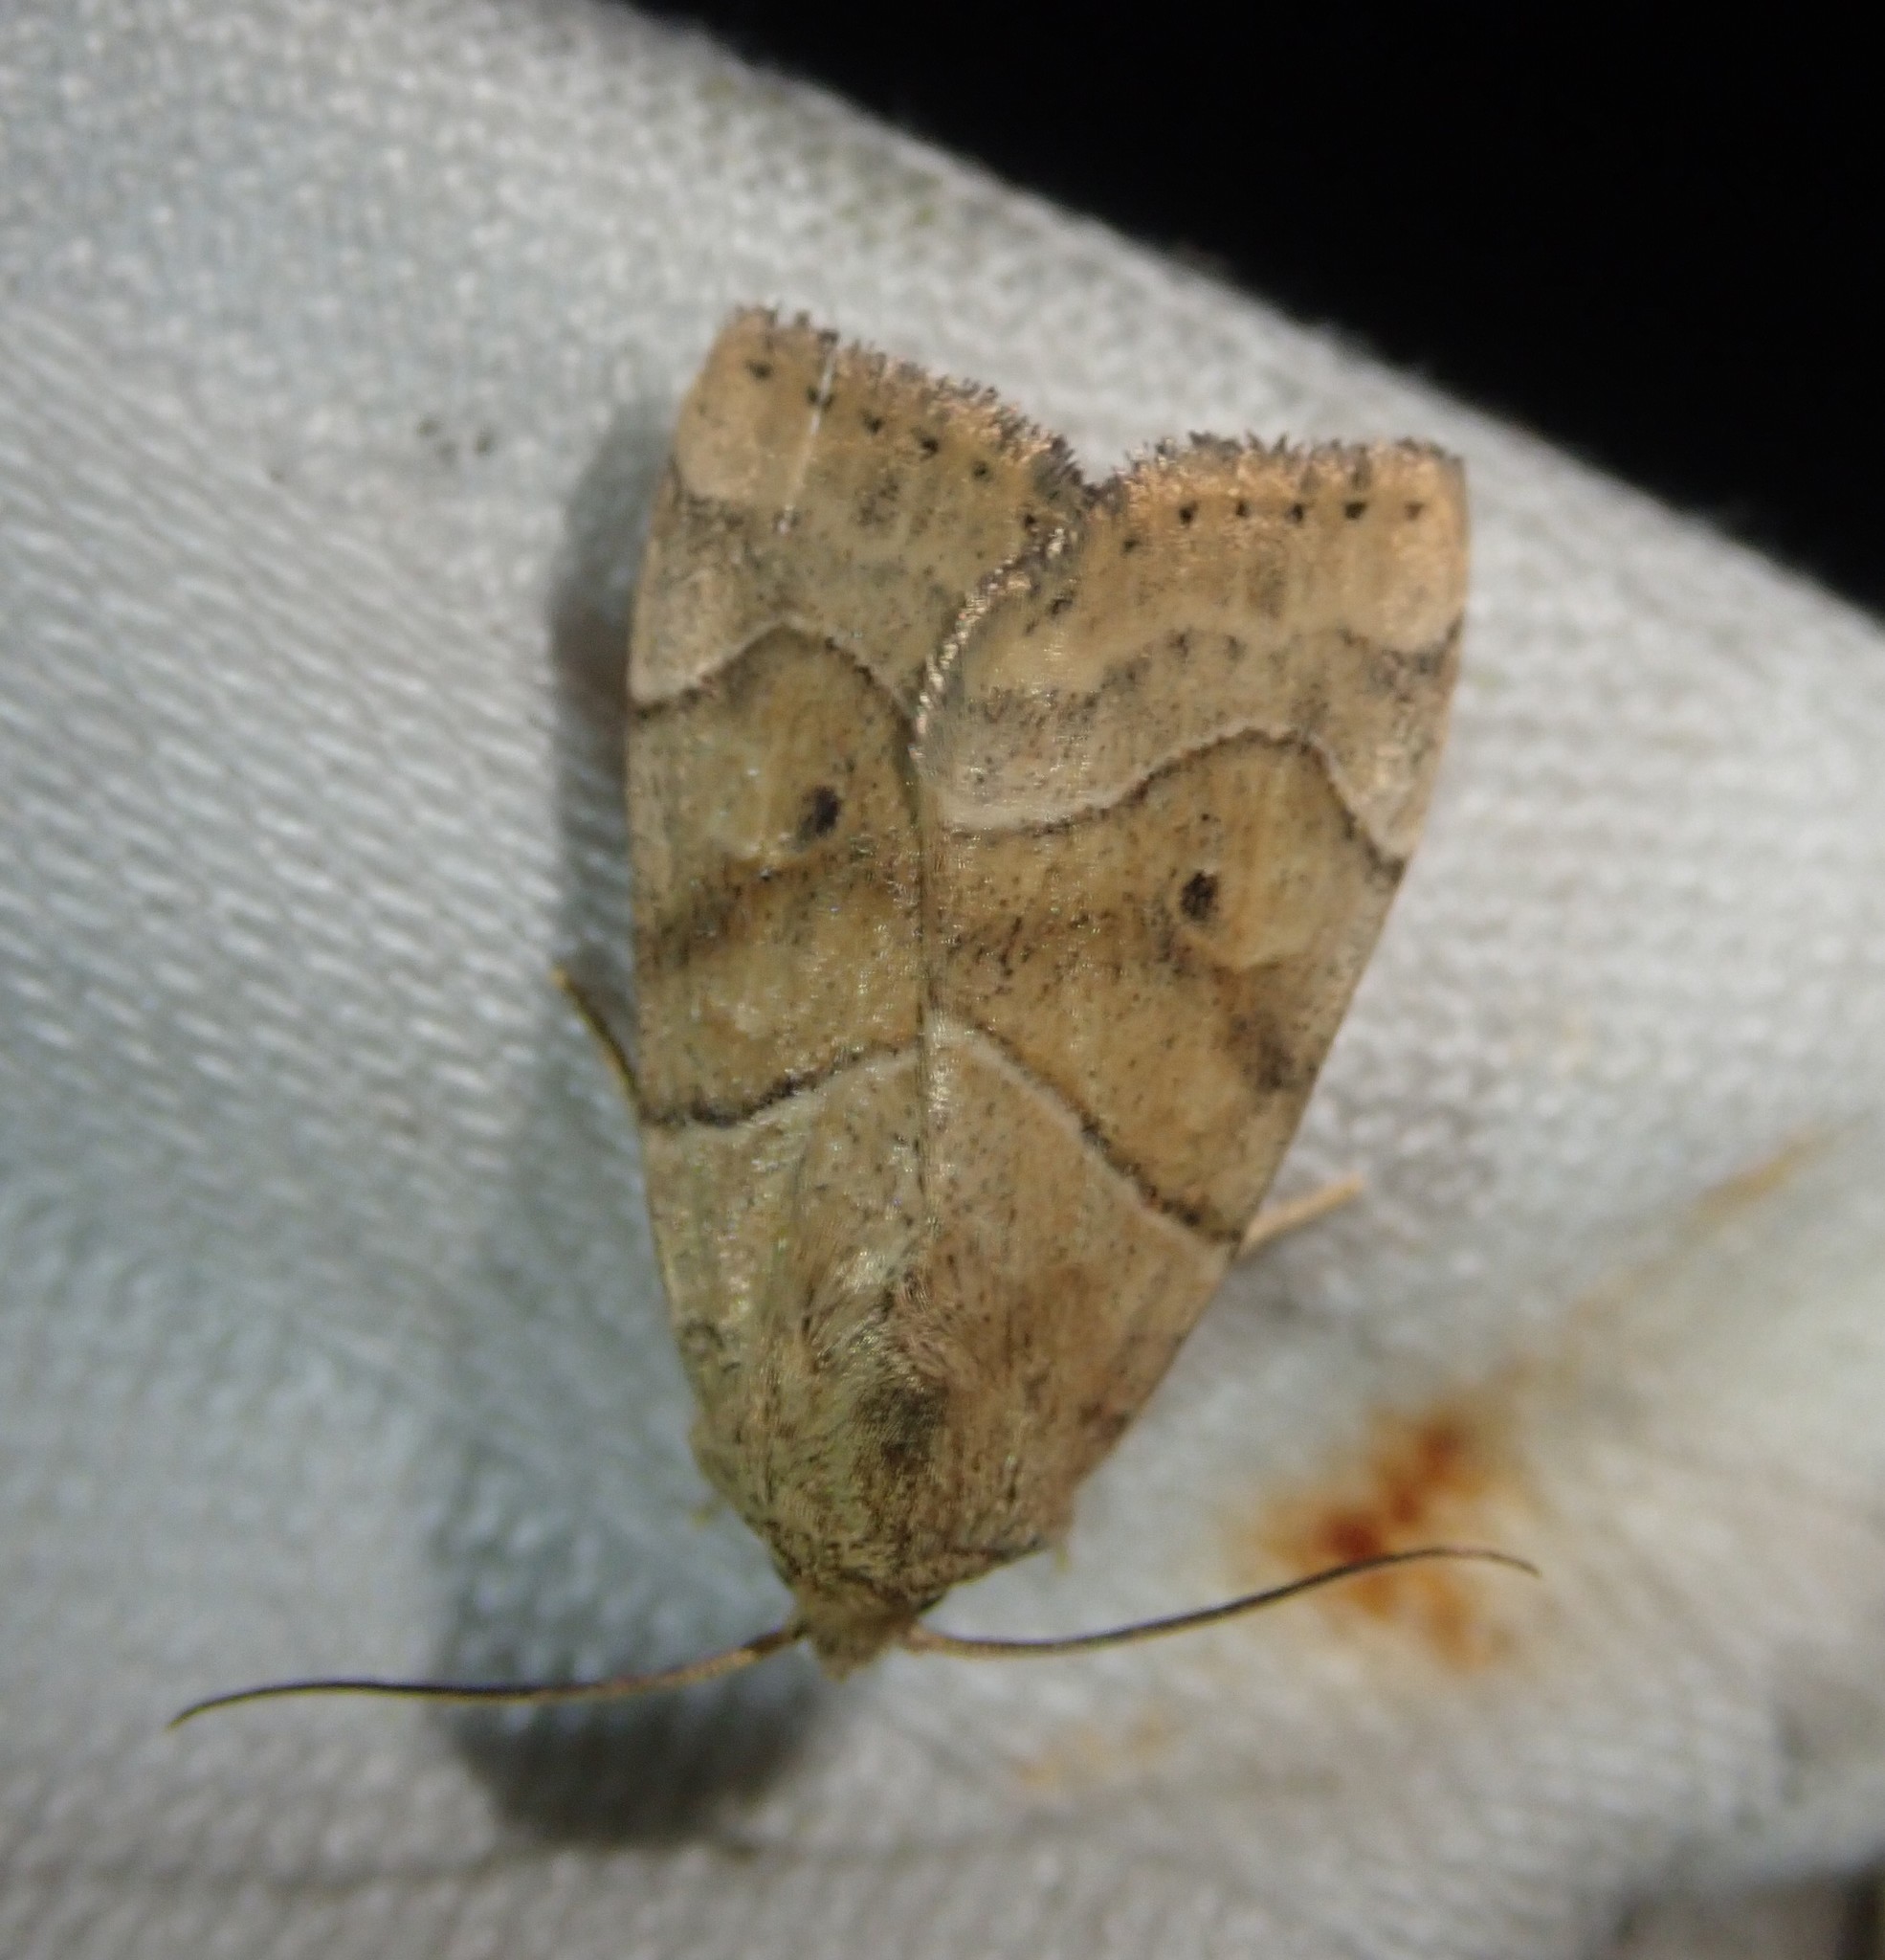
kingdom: Animalia
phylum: Arthropoda
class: Insecta
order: Lepidoptera
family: Noctuidae
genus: Cosmia
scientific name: Cosmia trapezina
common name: Dun-bar
